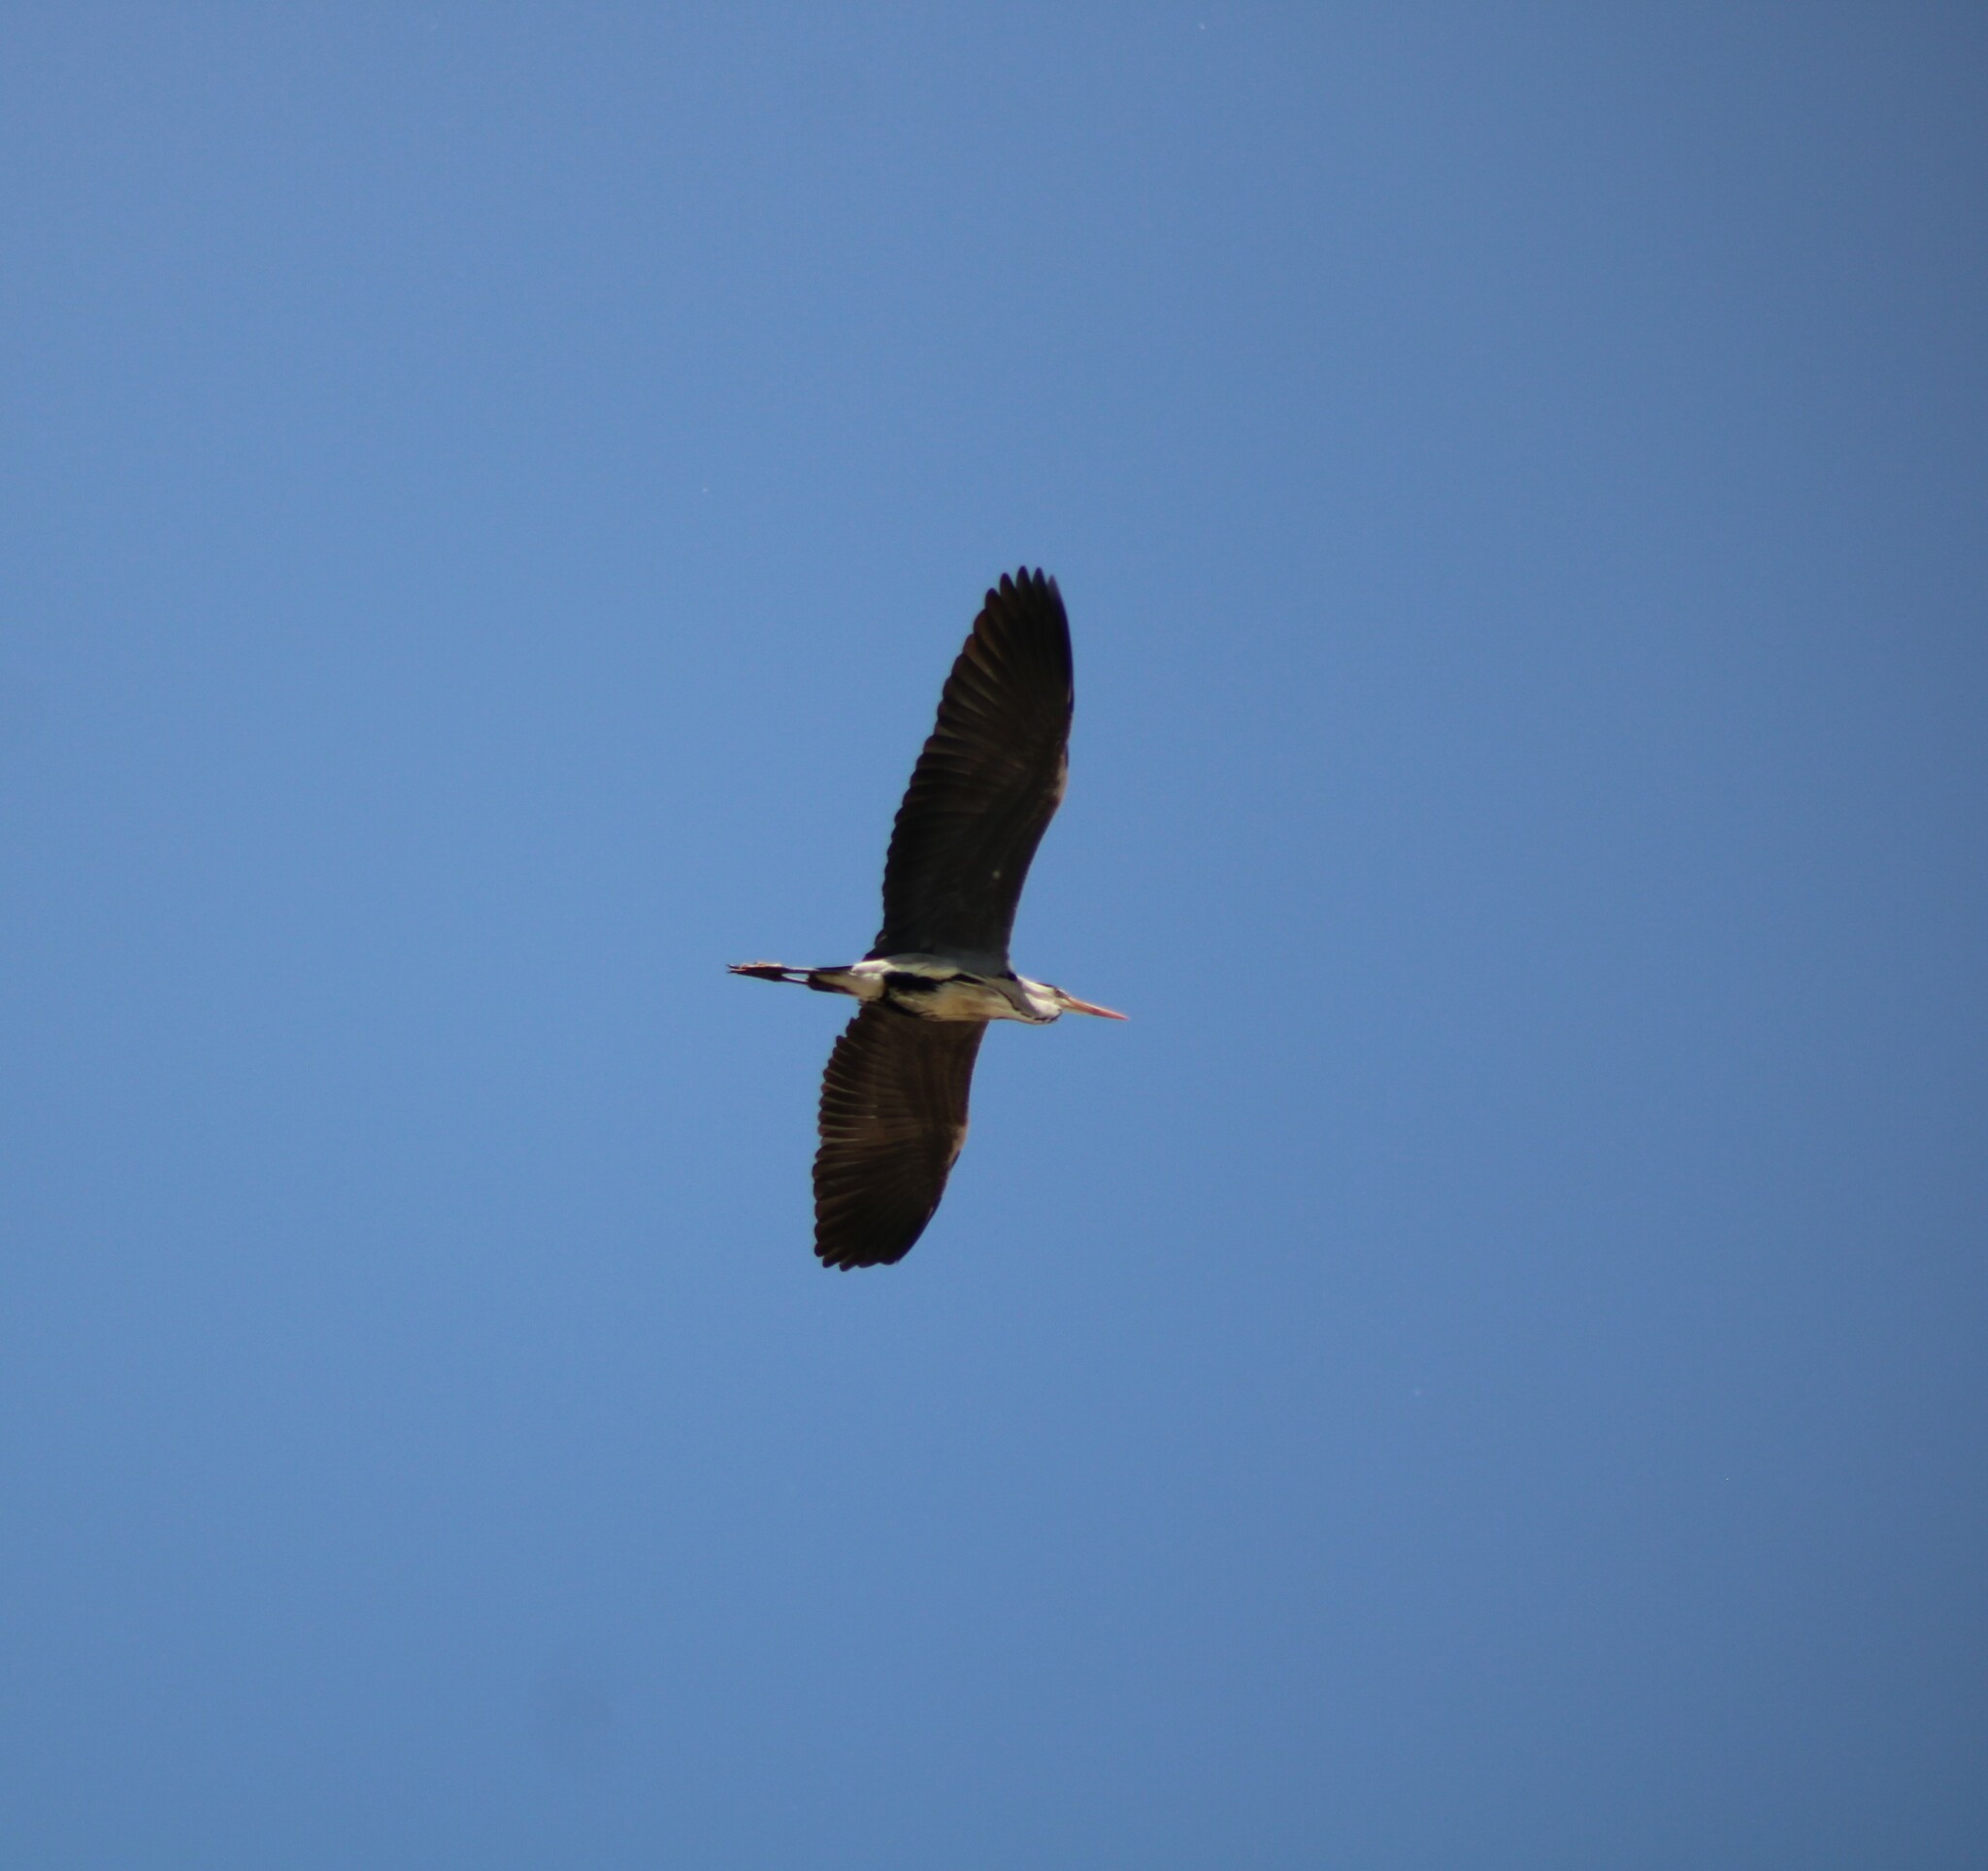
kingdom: Animalia
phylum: Chordata
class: Aves
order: Pelecaniformes
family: Ardeidae
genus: Ardea
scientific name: Ardea cinerea
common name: Grey heron
